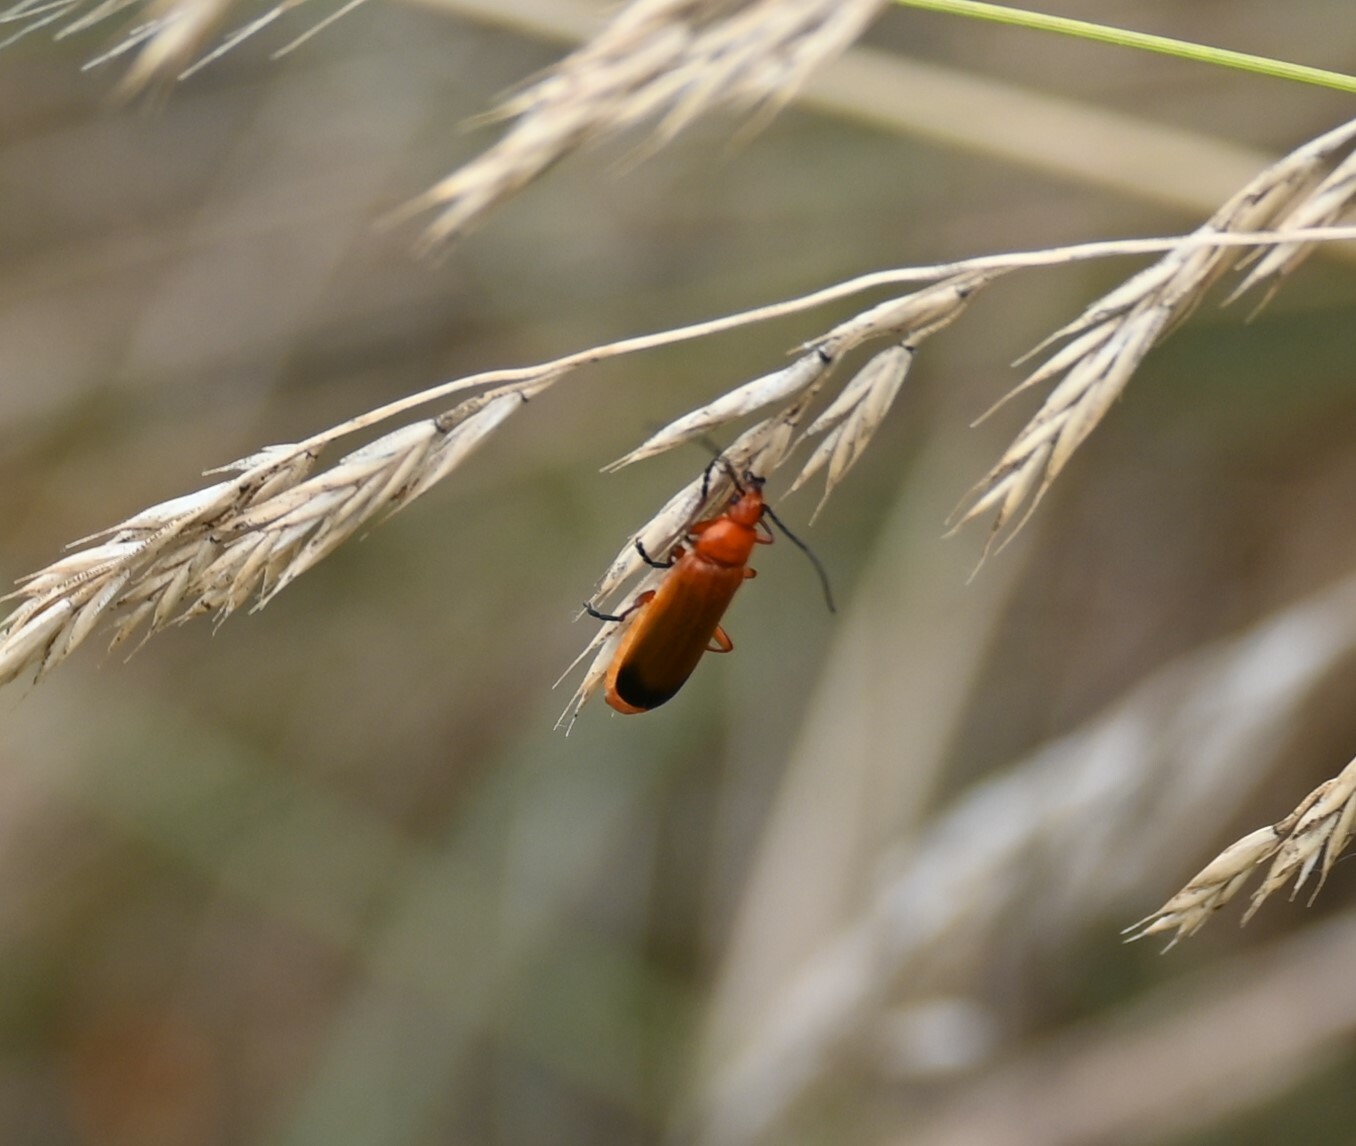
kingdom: Animalia
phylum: Arthropoda
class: Insecta
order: Coleoptera
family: Cantharidae
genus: Rhagonycha
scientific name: Rhagonycha fulva
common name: Common red soldier beetle
